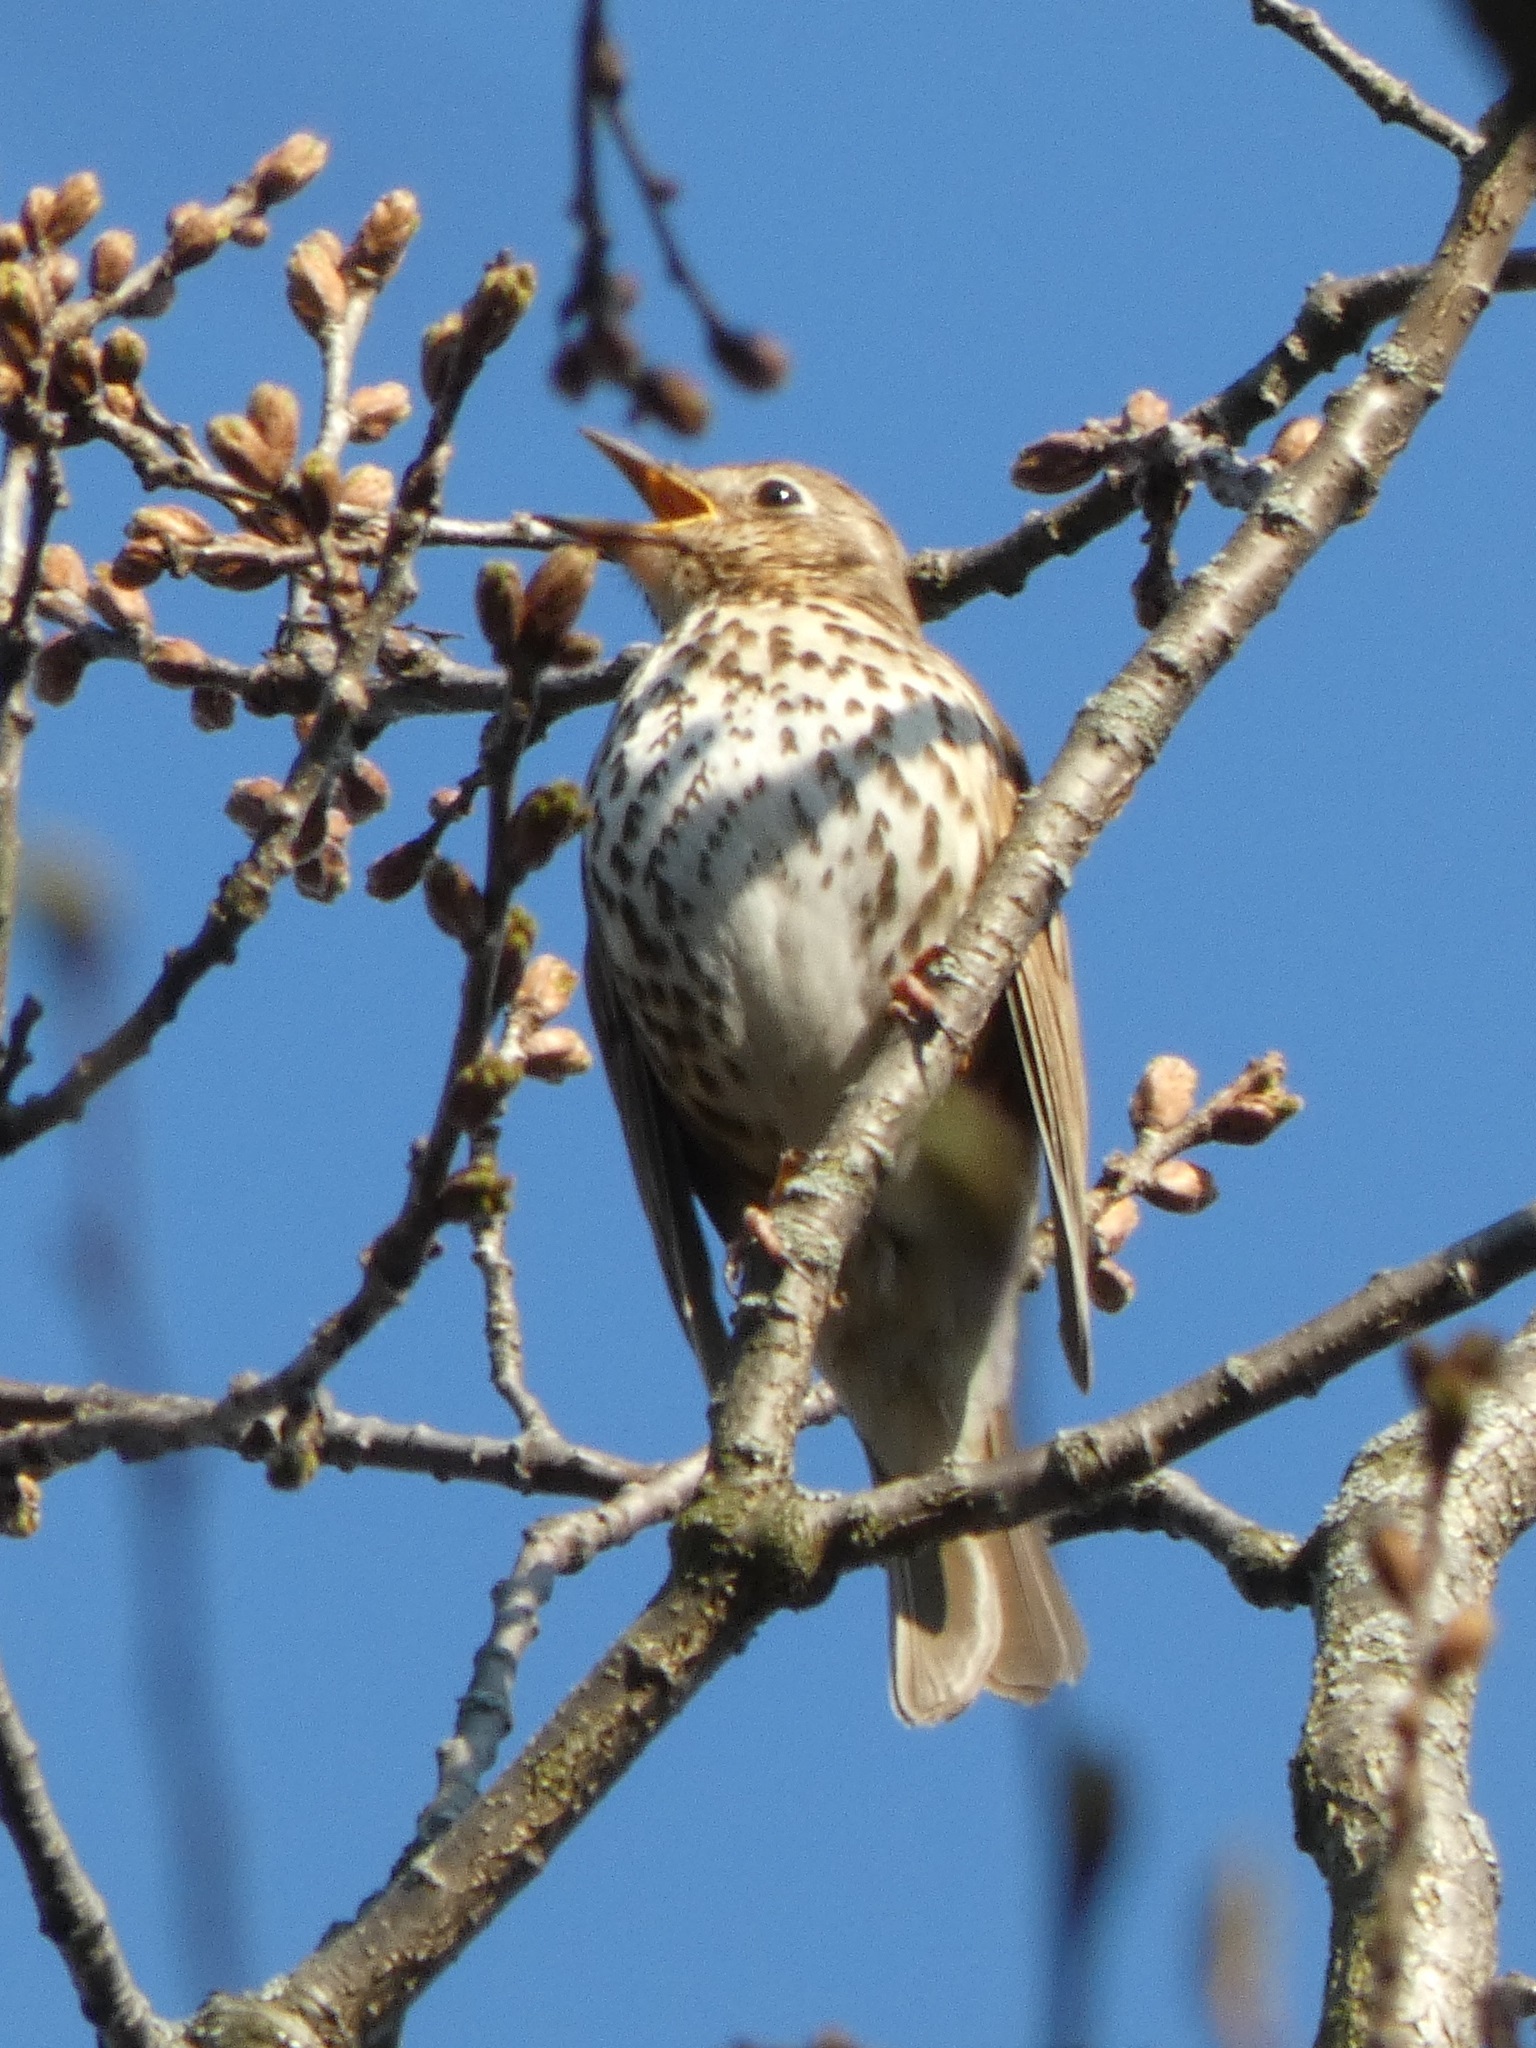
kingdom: Animalia
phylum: Chordata
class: Aves
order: Passeriformes
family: Turdidae
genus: Turdus
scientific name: Turdus philomelos
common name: Song thrush
